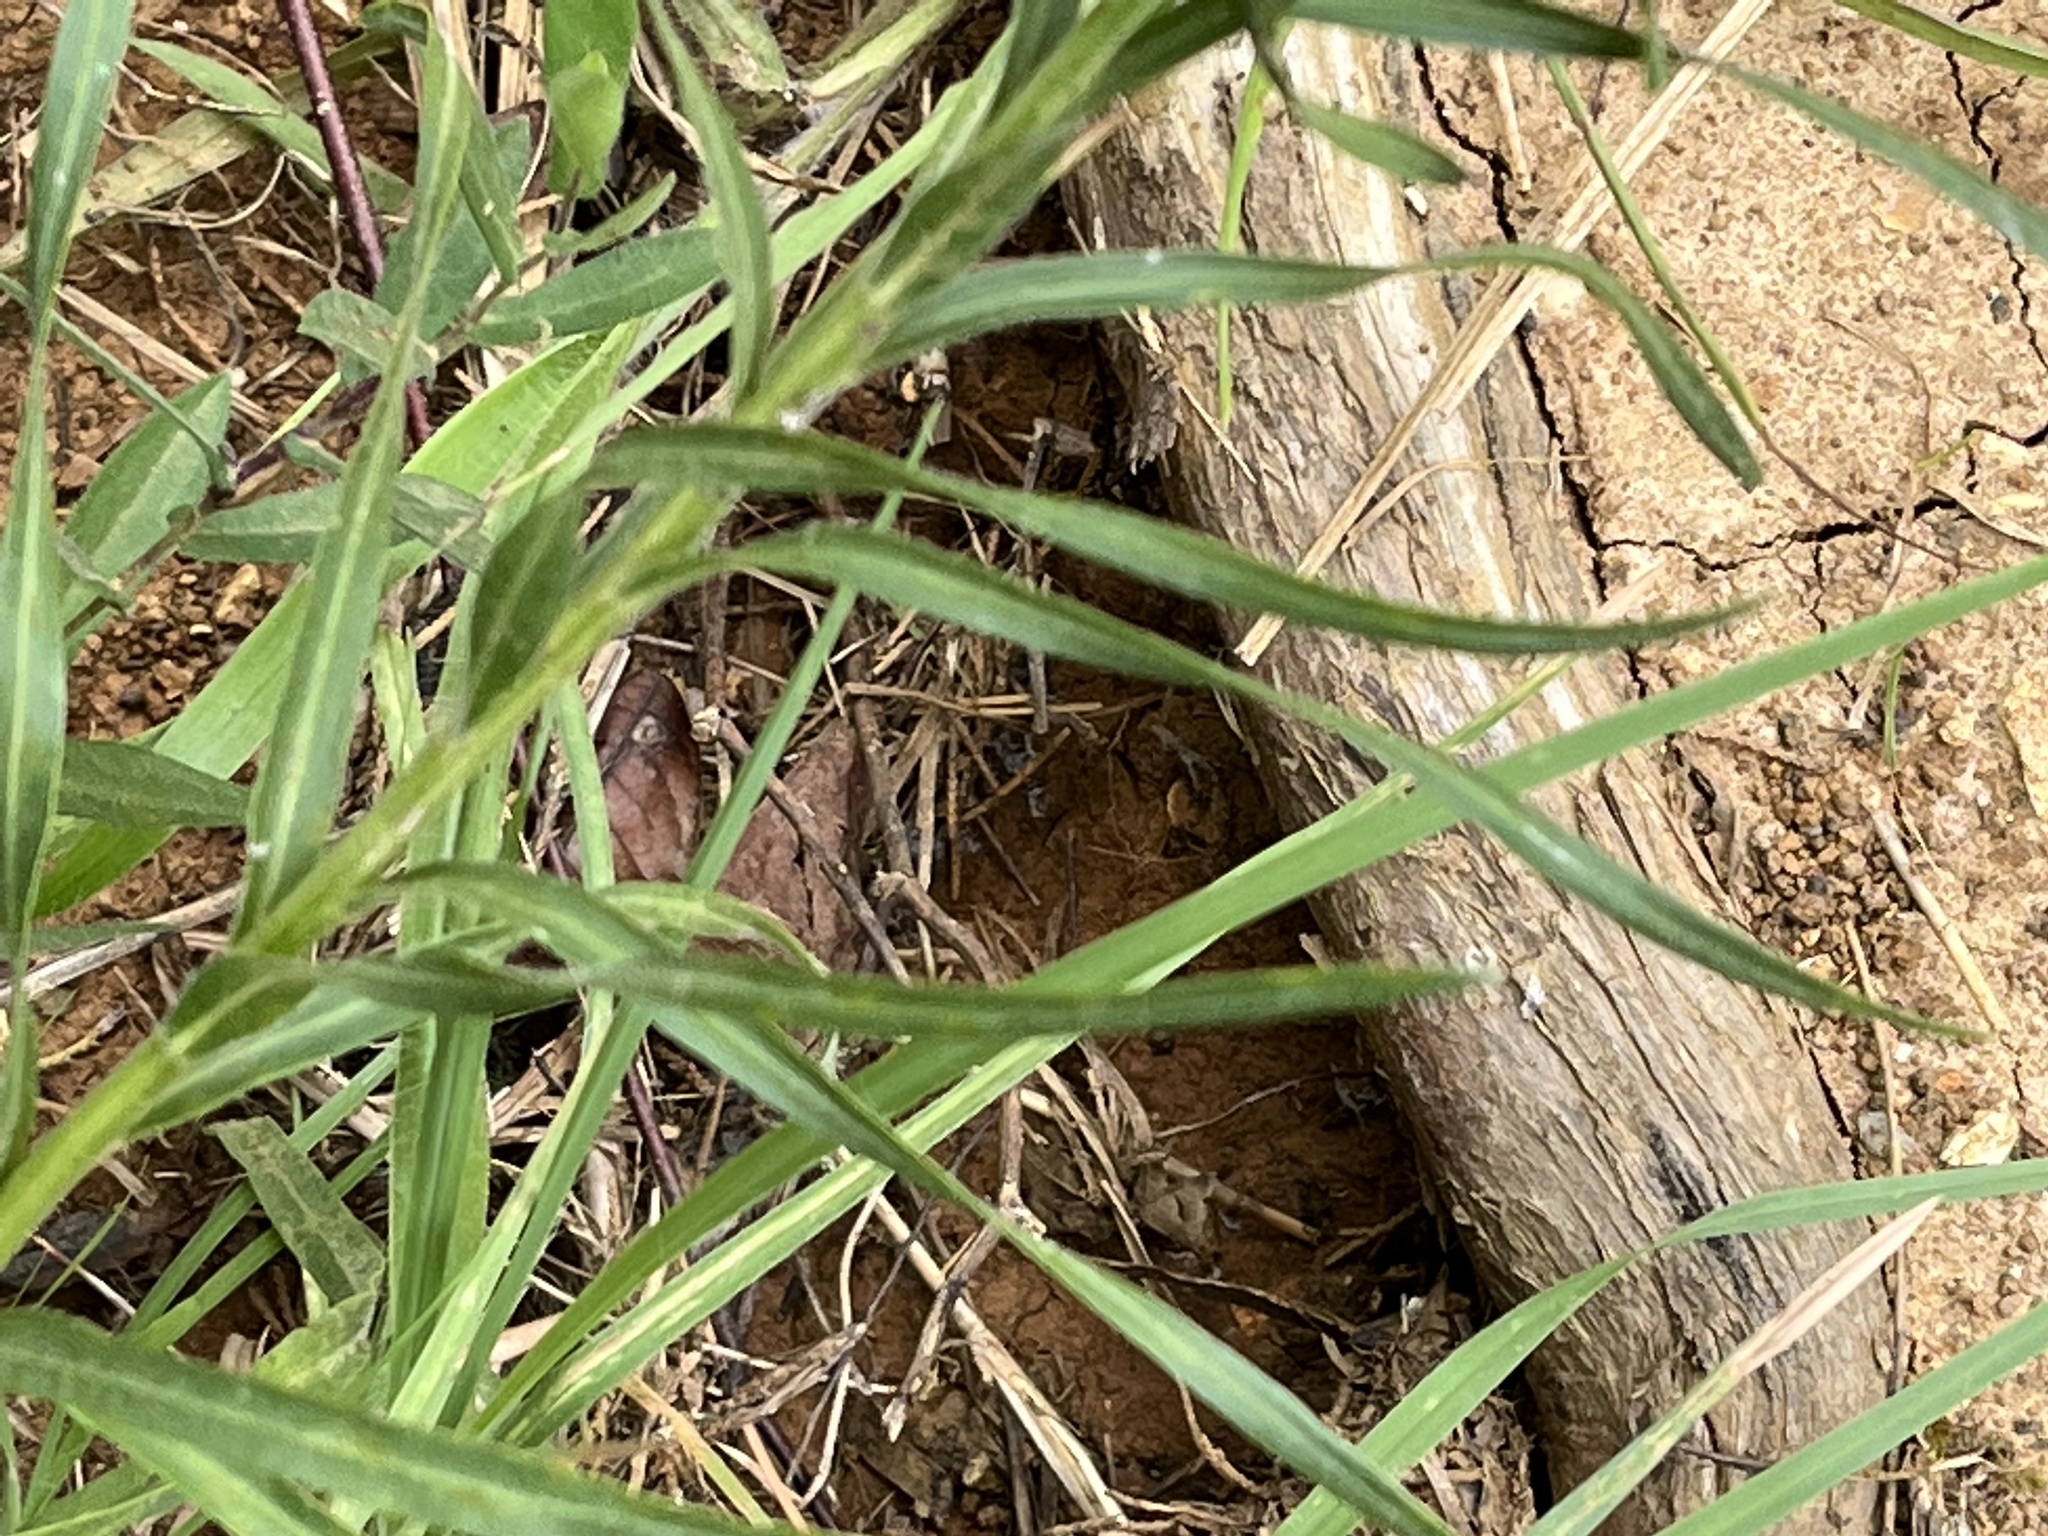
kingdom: Plantae
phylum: Tracheophyta
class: Magnoliopsida
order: Asterales
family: Asteraceae
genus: Liatris
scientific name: Liatris squarrosa
